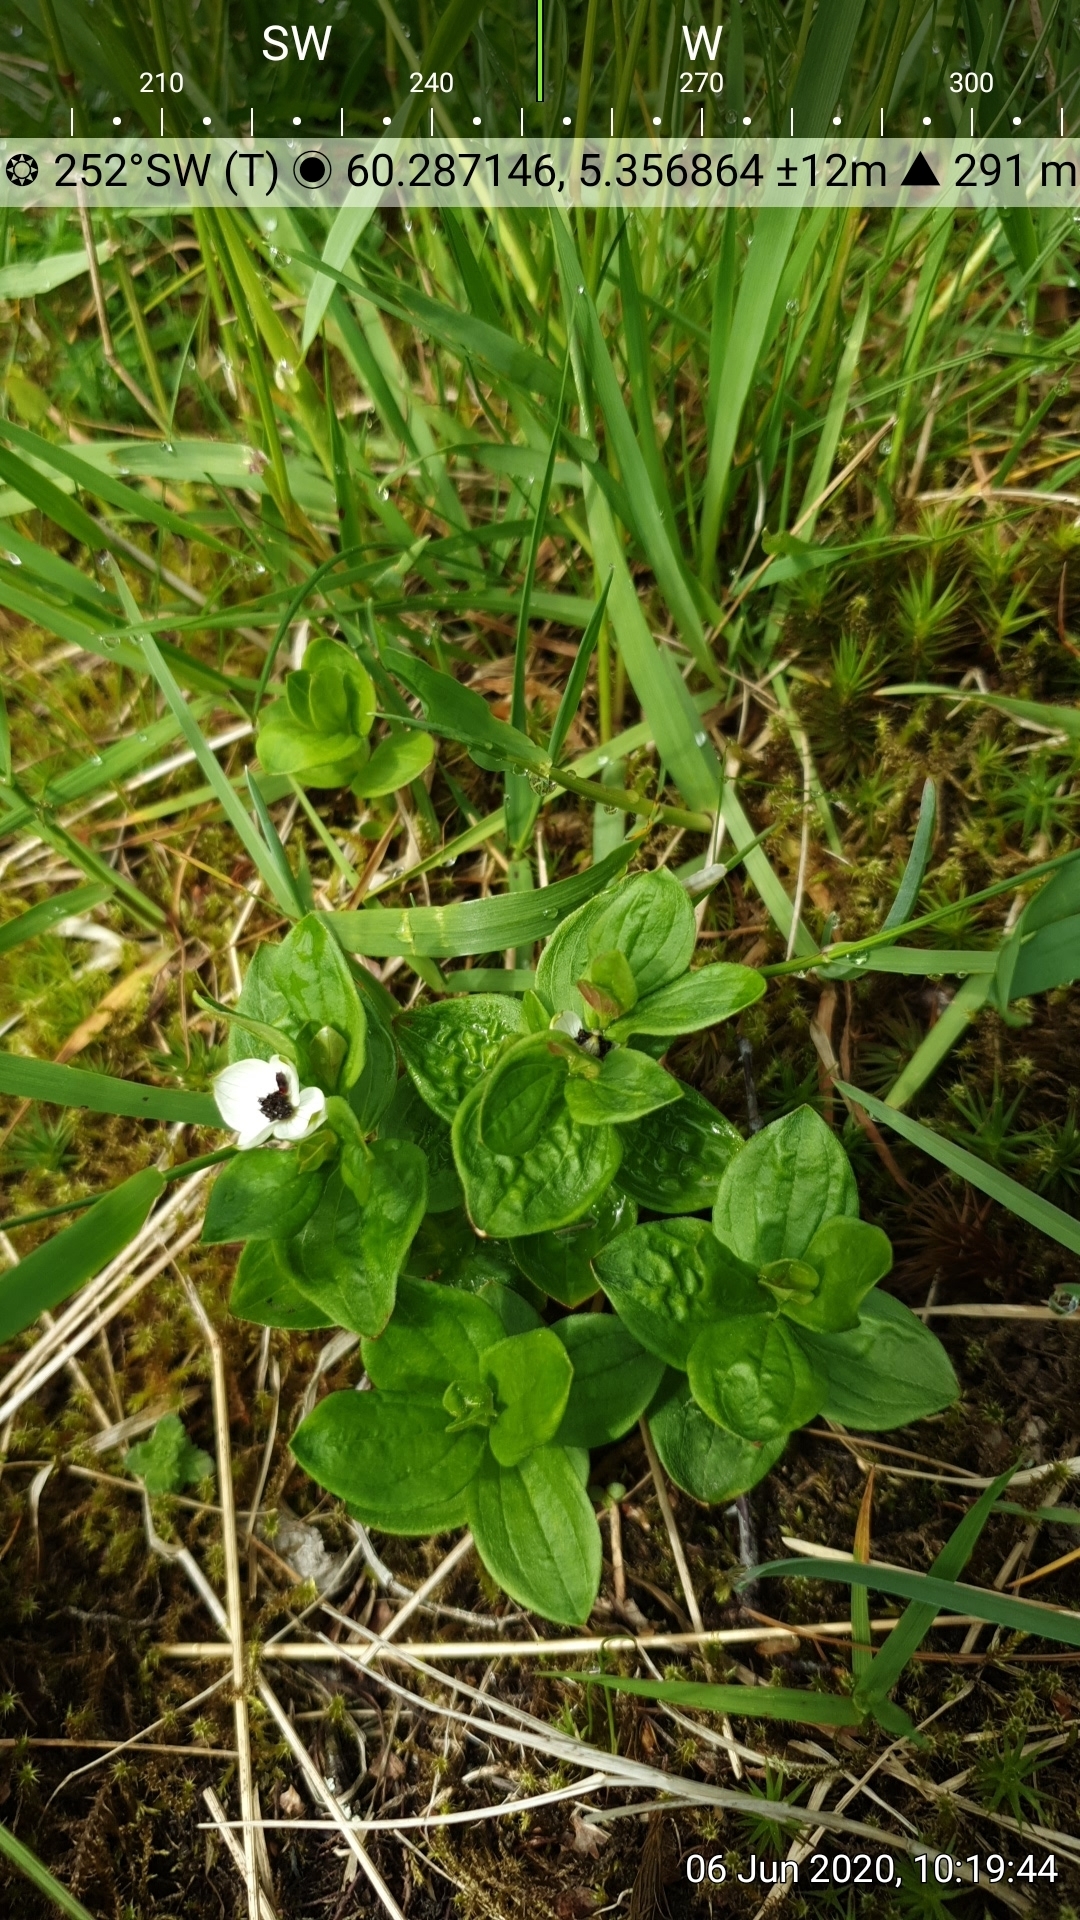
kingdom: Plantae
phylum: Tracheophyta
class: Magnoliopsida
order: Cornales
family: Cornaceae
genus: Cornus
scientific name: Cornus suecica
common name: Dwarf cornel
